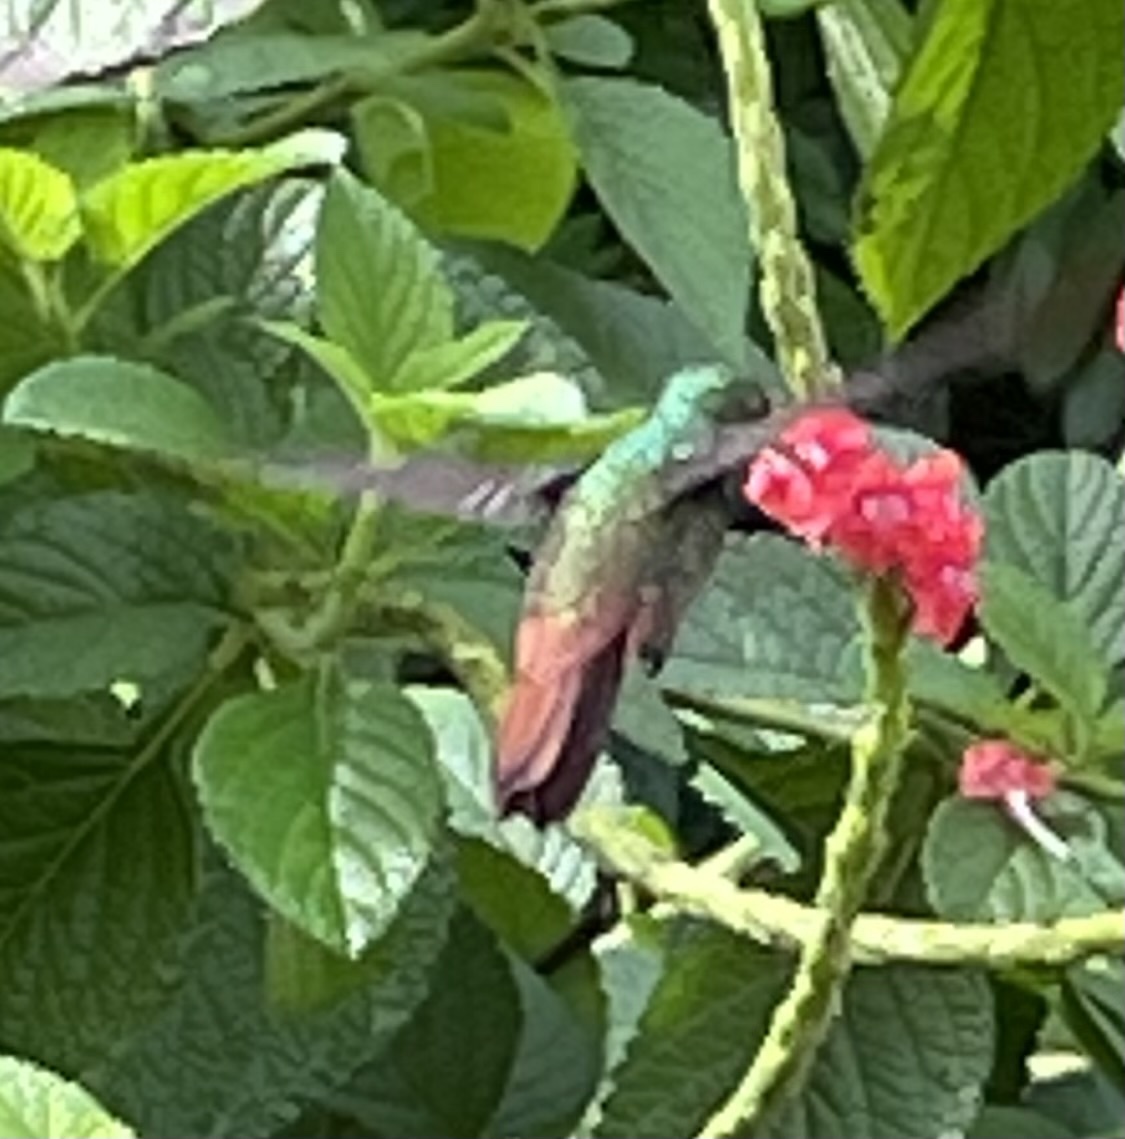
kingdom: Animalia
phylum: Chordata
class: Aves
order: Apodiformes
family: Trochilidae
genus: Amazilia
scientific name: Amazilia tzacatl
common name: Rufous-tailed hummingbird
